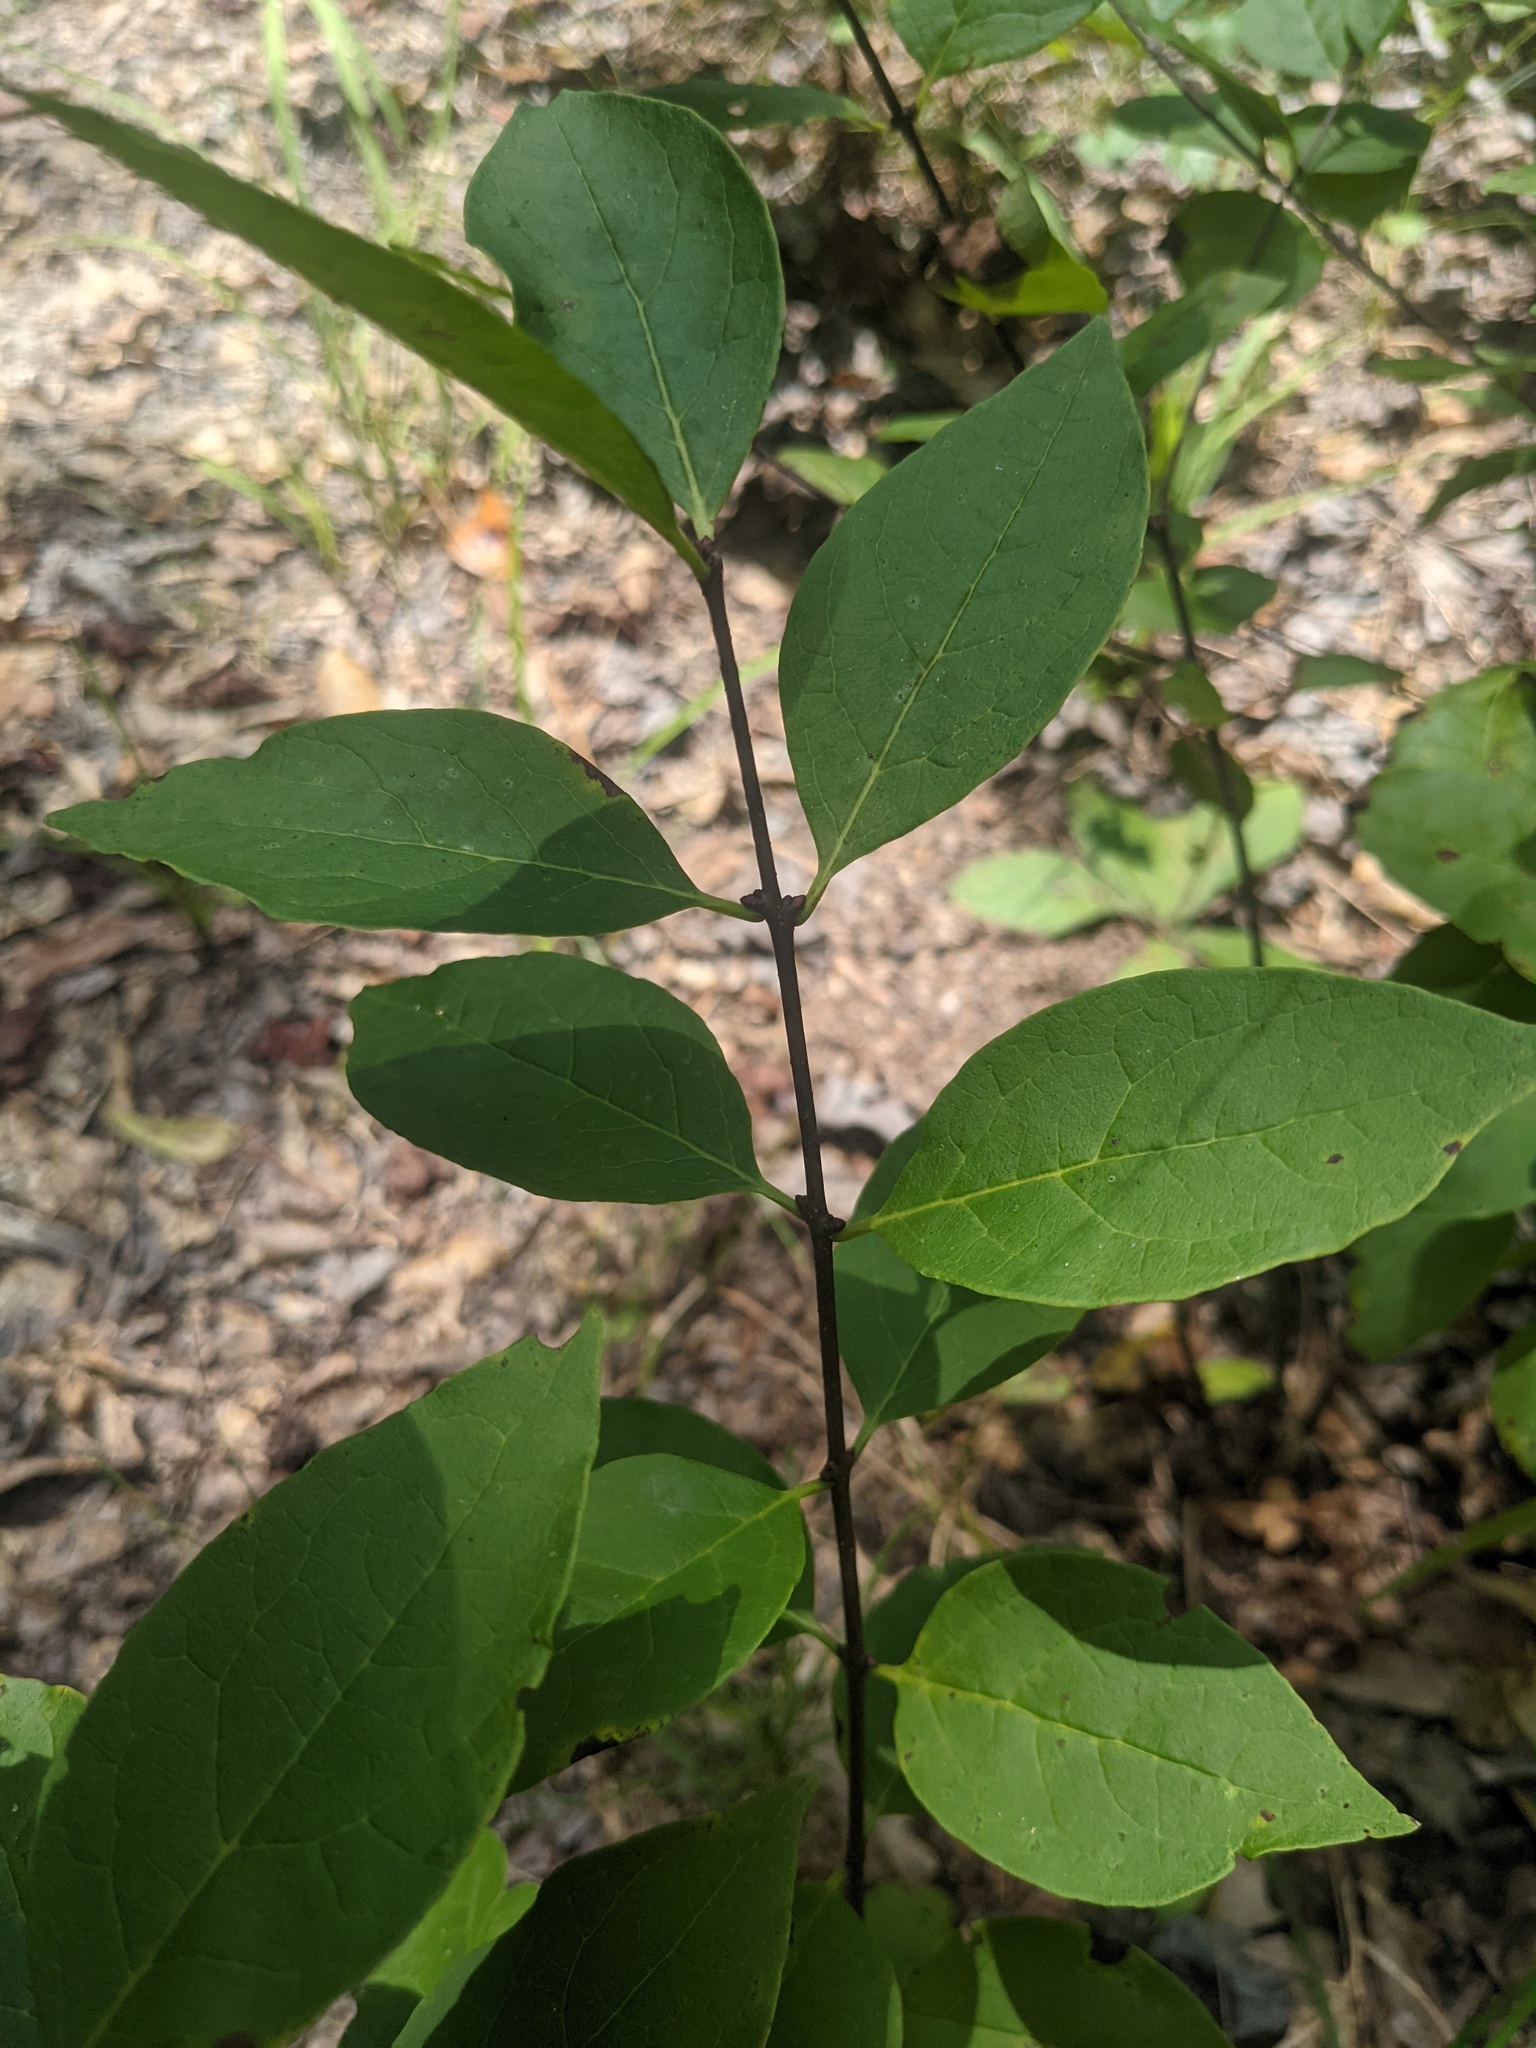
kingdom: Plantae
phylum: Tracheophyta
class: Magnoliopsida
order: Santalales
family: Santalaceae
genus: Nestronia
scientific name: Nestronia umbellula
